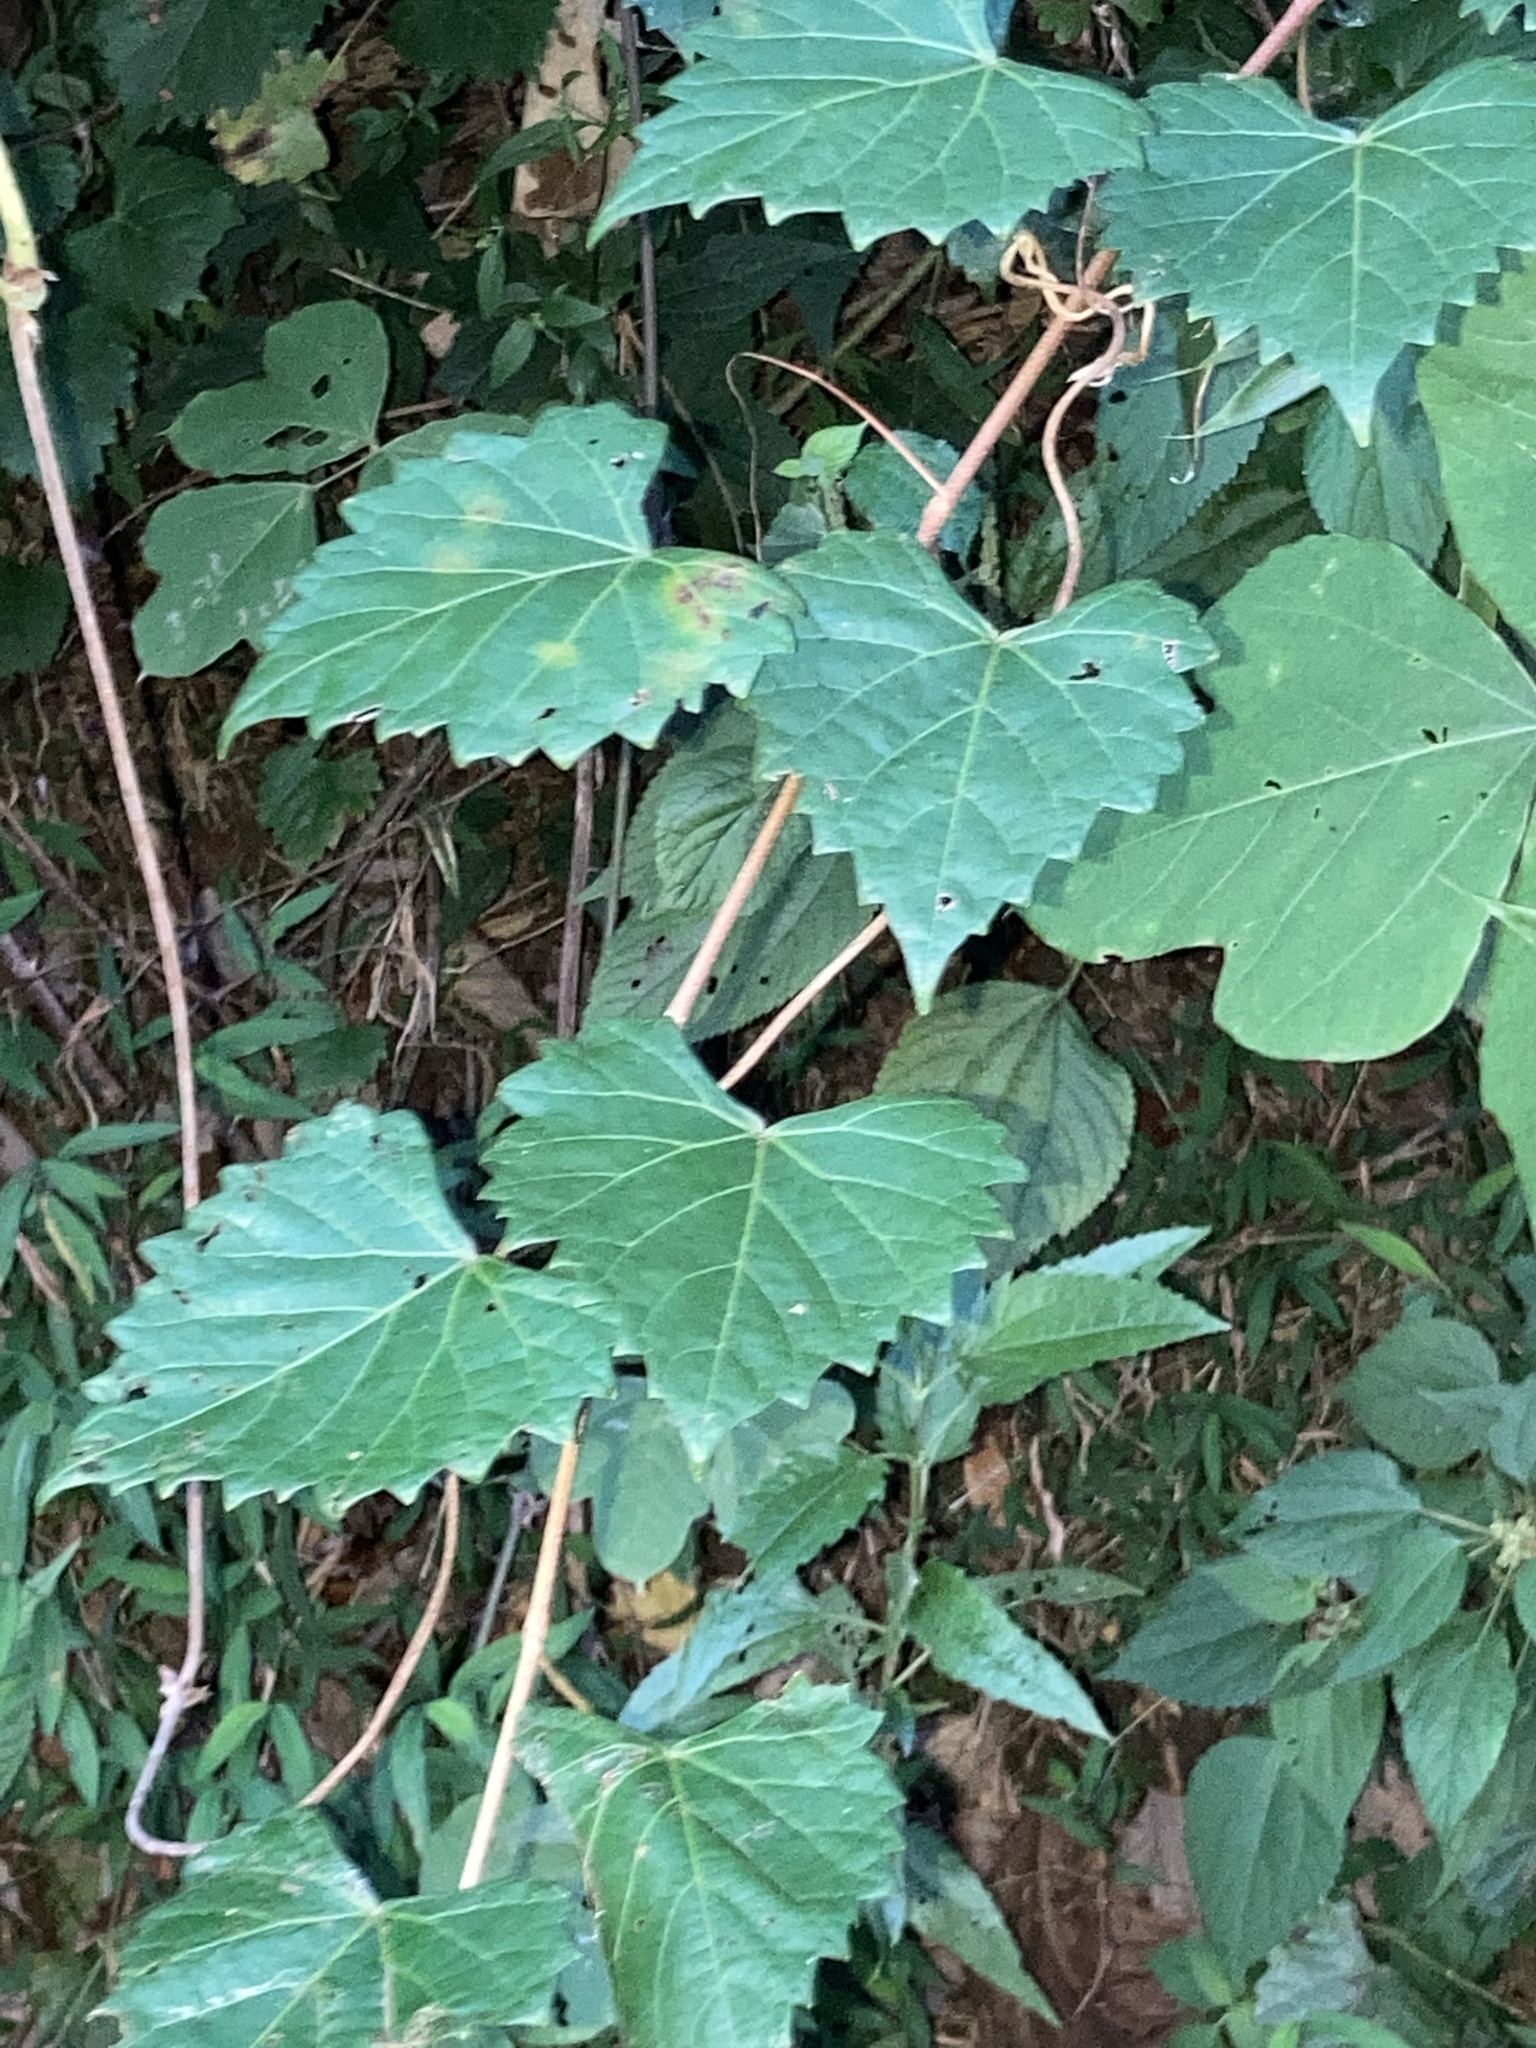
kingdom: Plantae
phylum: Tracheophyta
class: Magnoliopsida
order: Vitales
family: Vitaceae
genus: Vitis
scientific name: Vitis rotundifolia
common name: Muscadine grape
